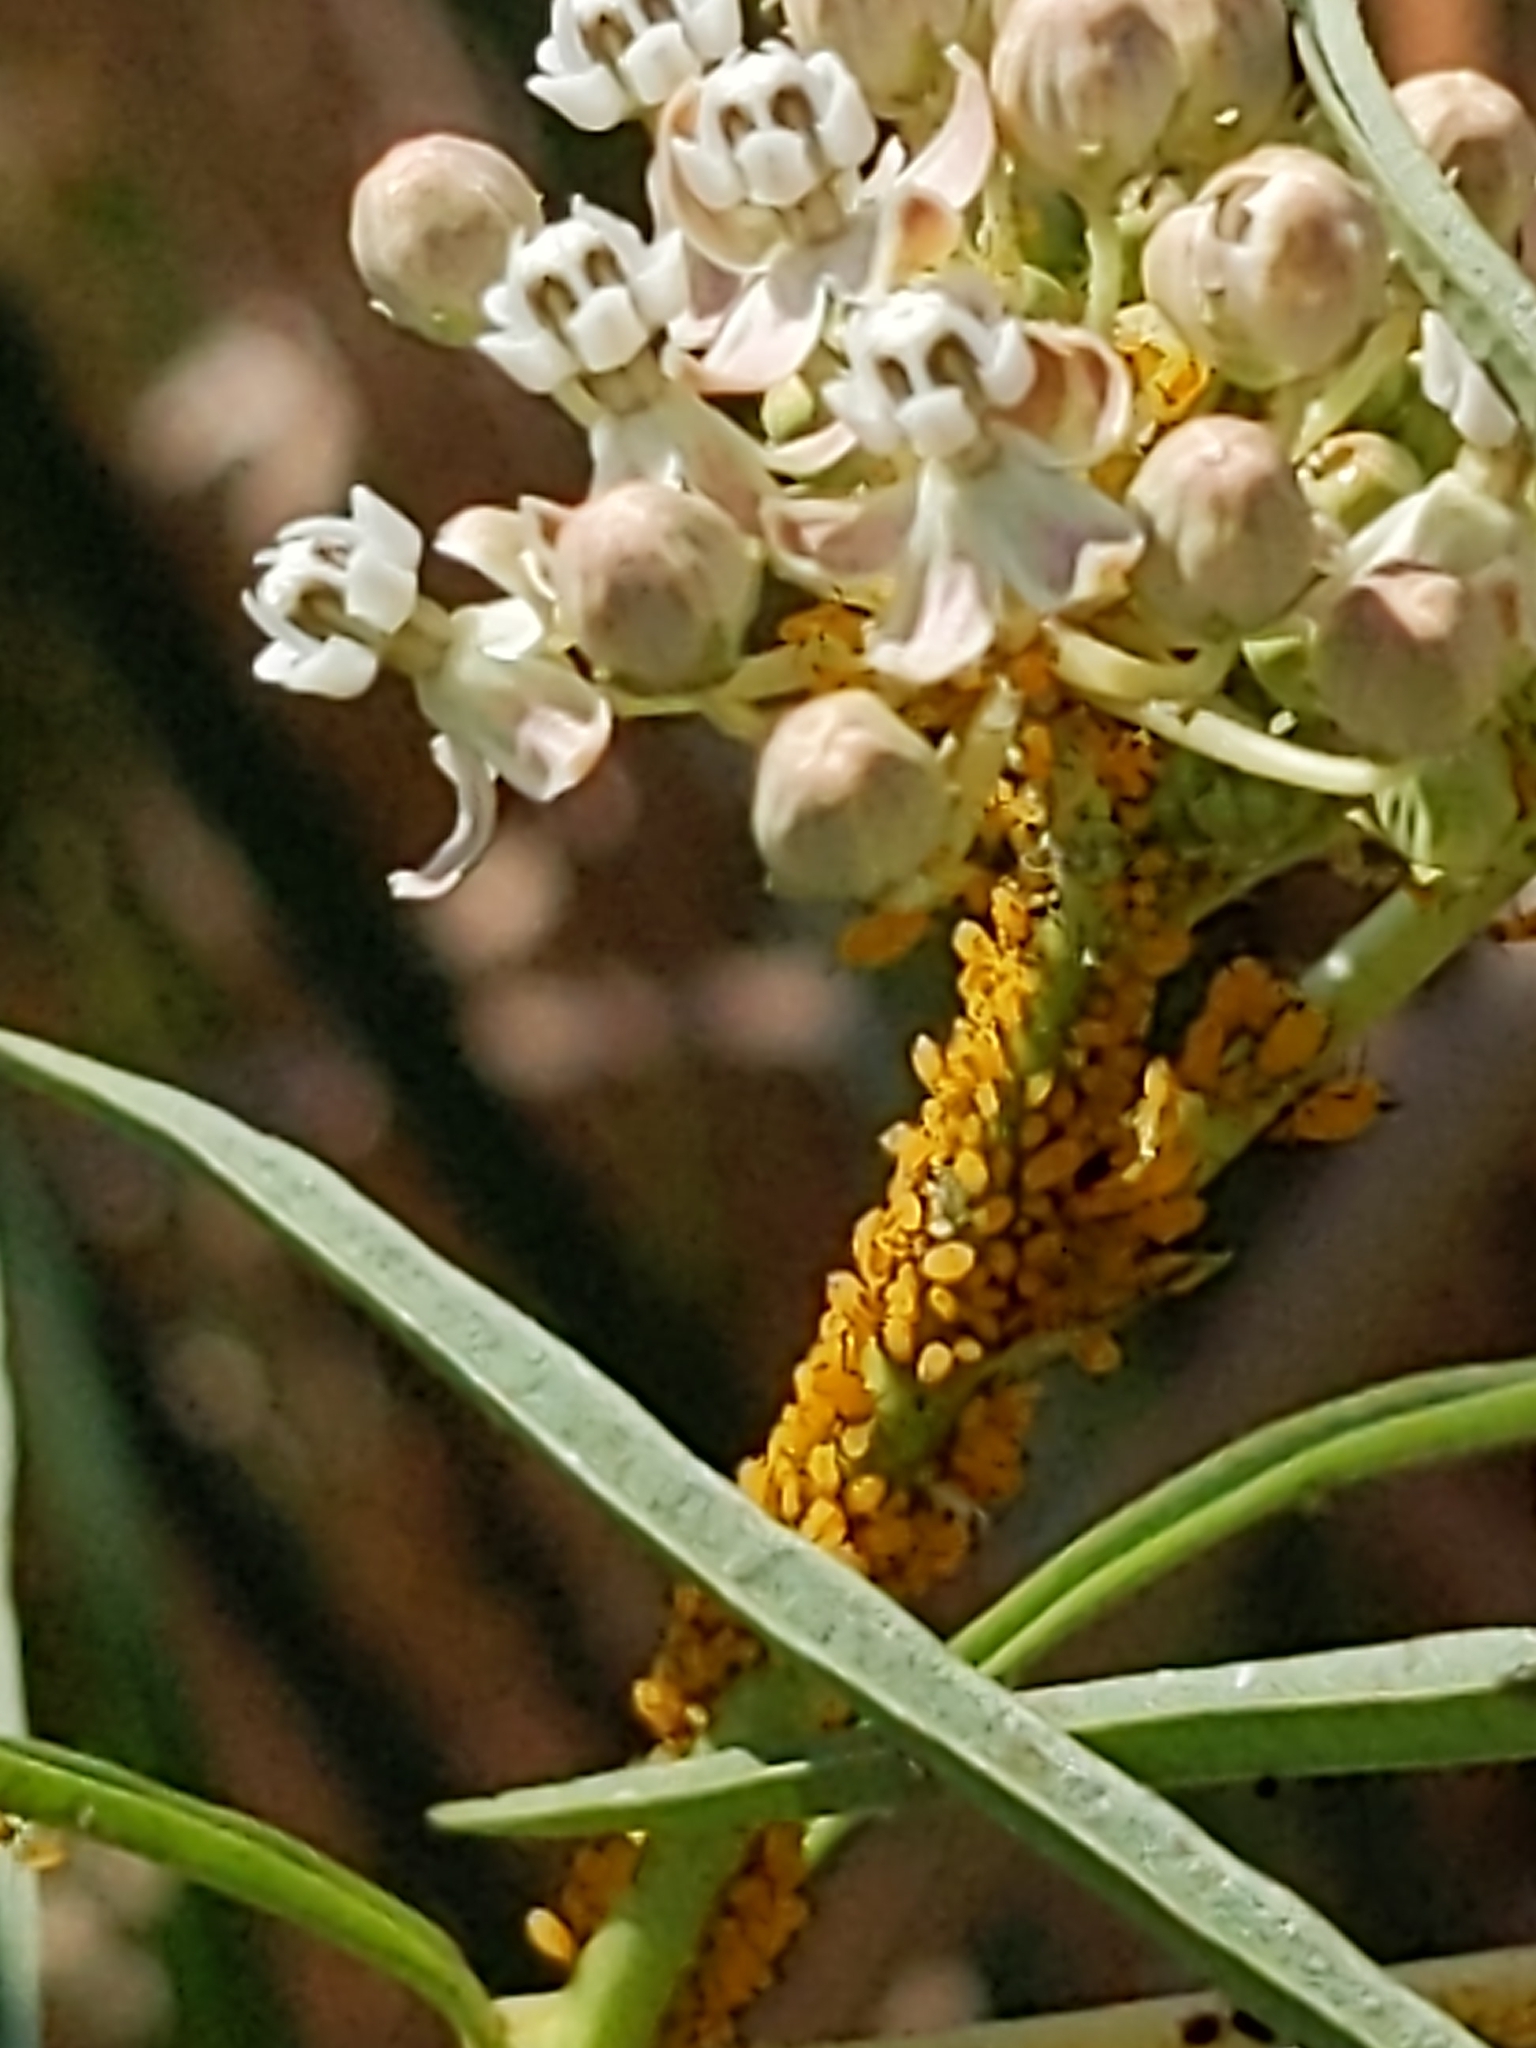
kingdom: Animalia
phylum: Arthropoda
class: Insecta
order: Hemiptera
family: Aphididae
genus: Aphis
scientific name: Aphis nerii
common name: Oleander aphid
